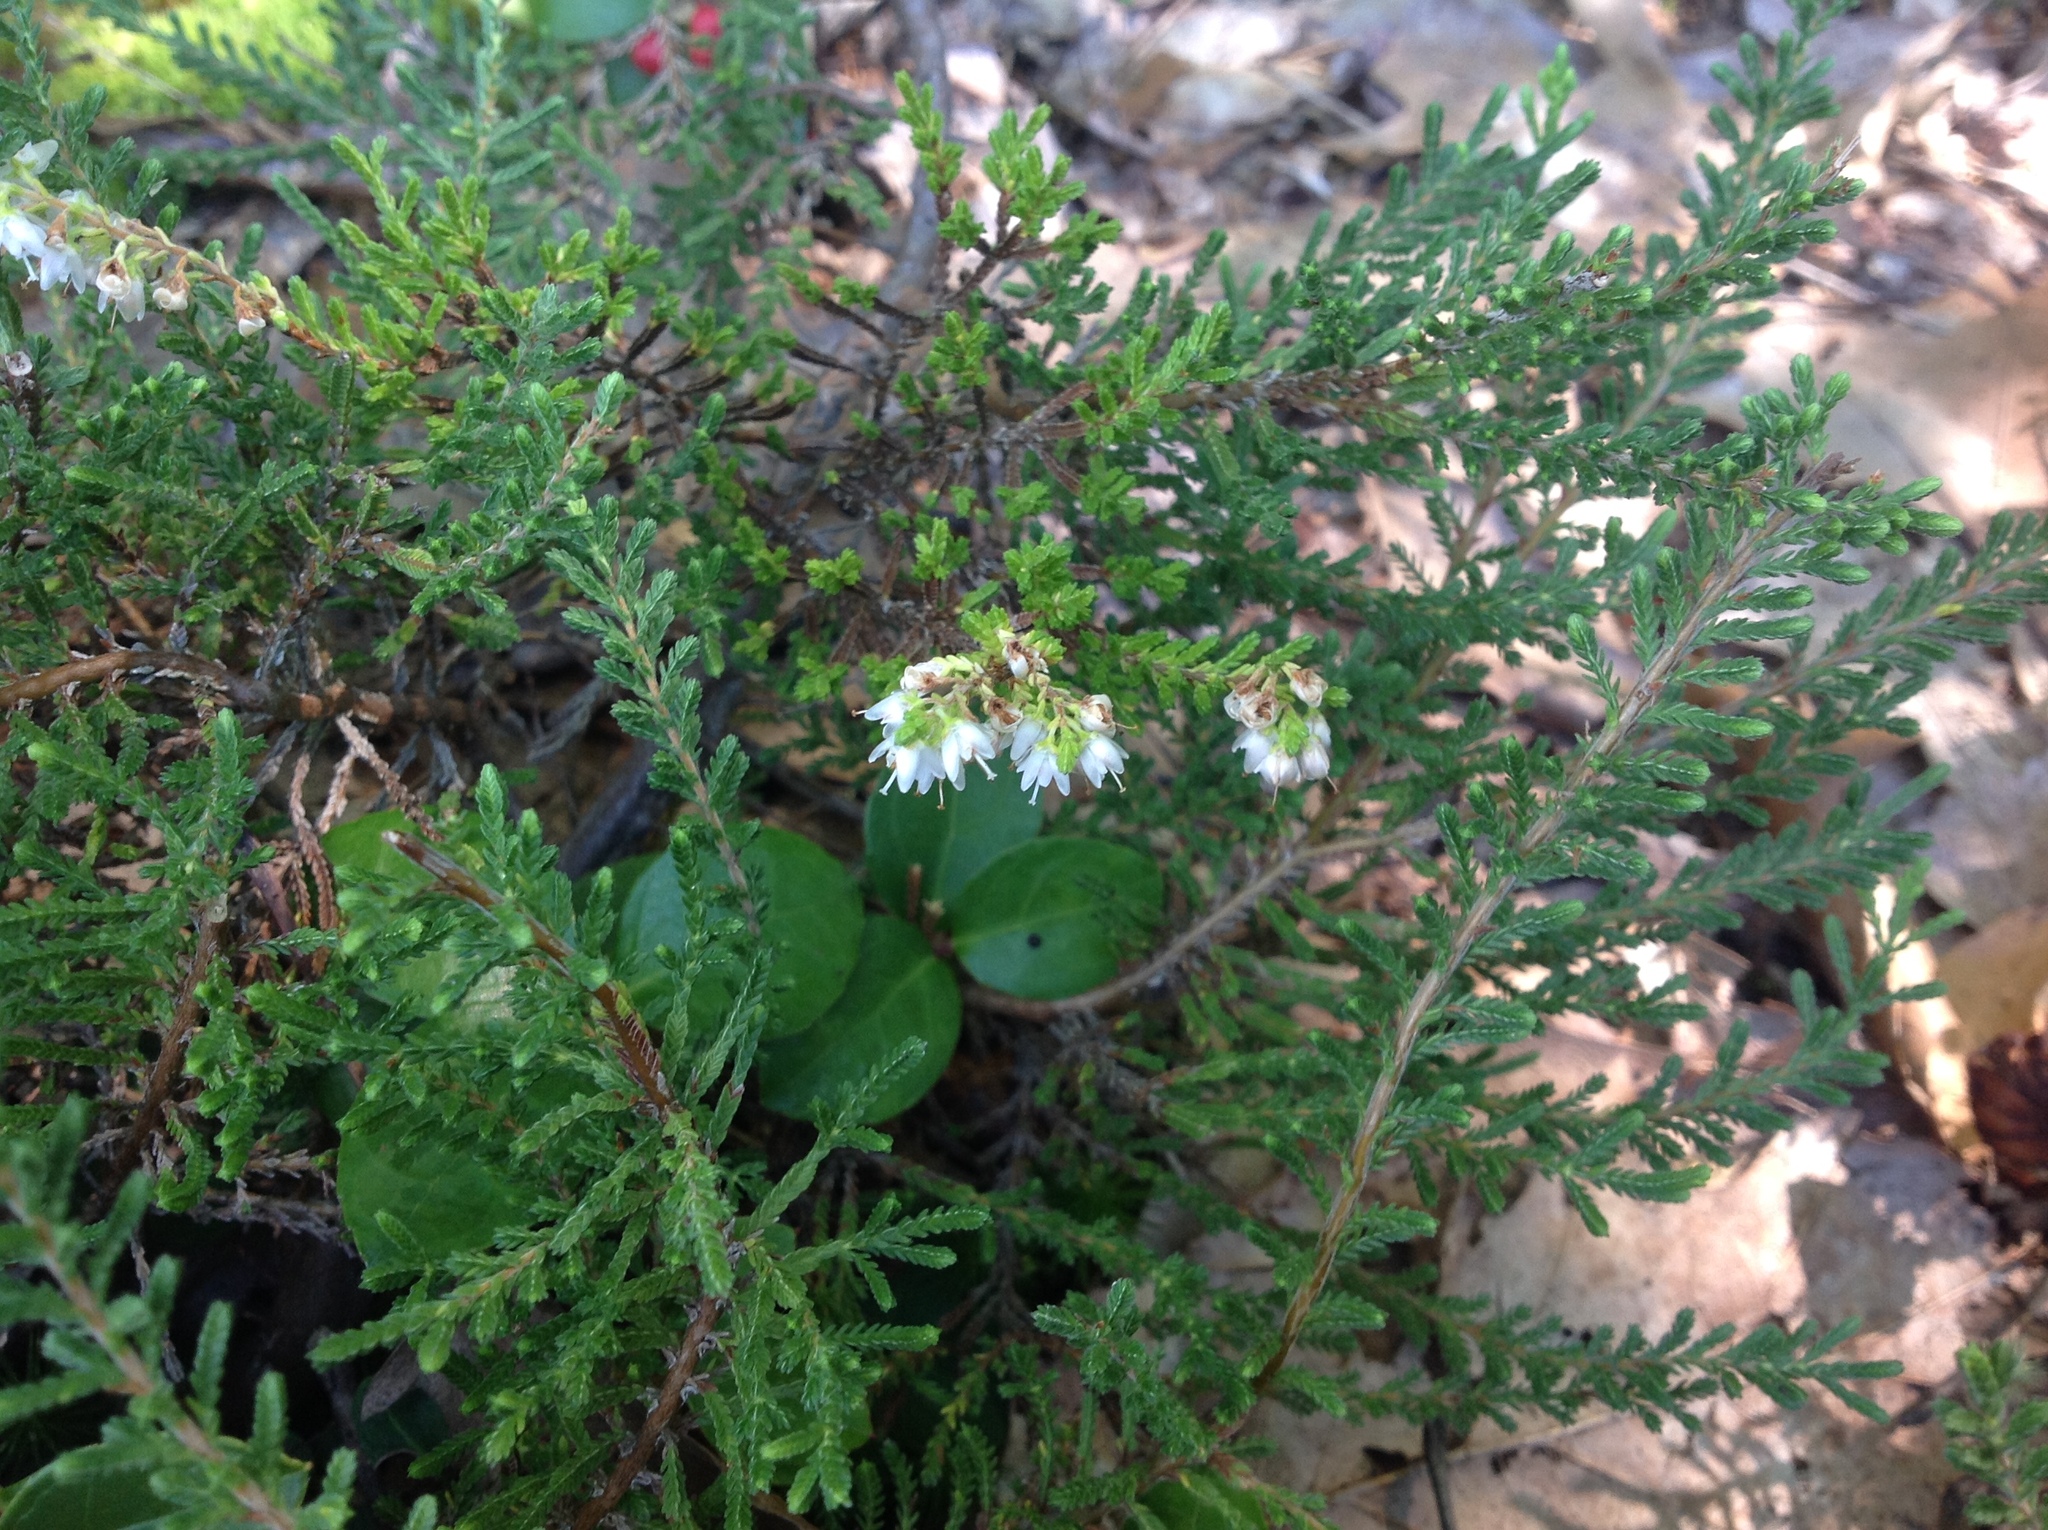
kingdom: Plantae
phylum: Tracheophyta
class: Magnoliopsida
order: Ericales
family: Ericaceae
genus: Calluna
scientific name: Calluna vulgaris
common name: Heather
